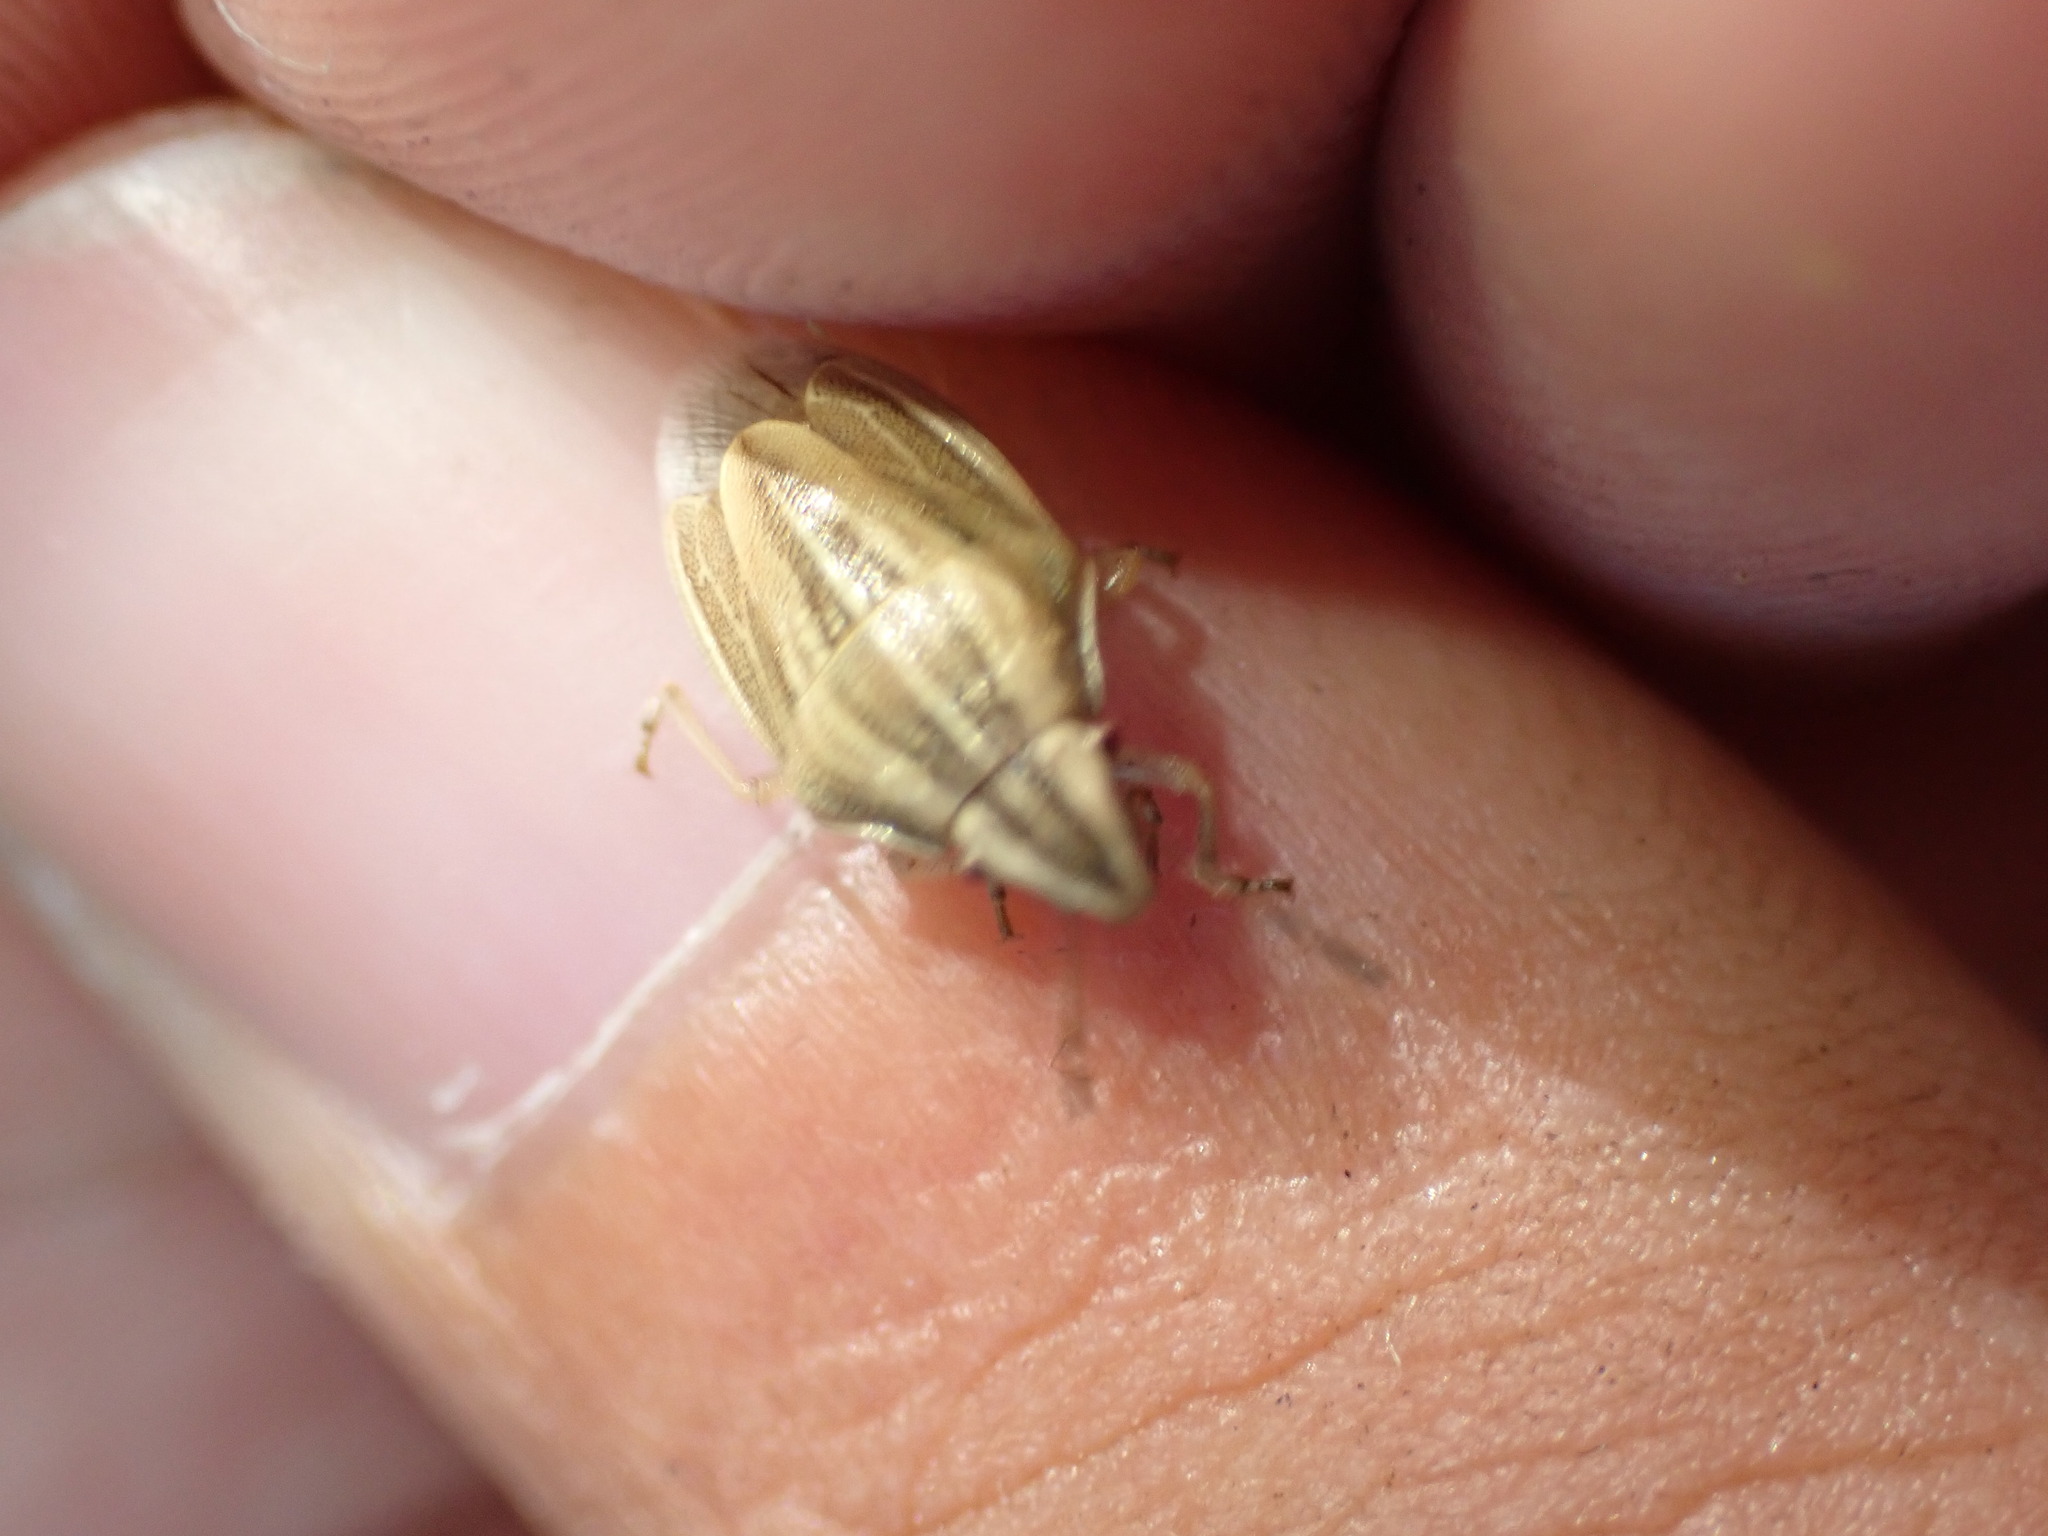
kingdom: Animalia
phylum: Arthropoda
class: Insecta
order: Hemiptera
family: Pentatomidae
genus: Aelia
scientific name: Aelia acuminata
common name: Bishop's mitre
